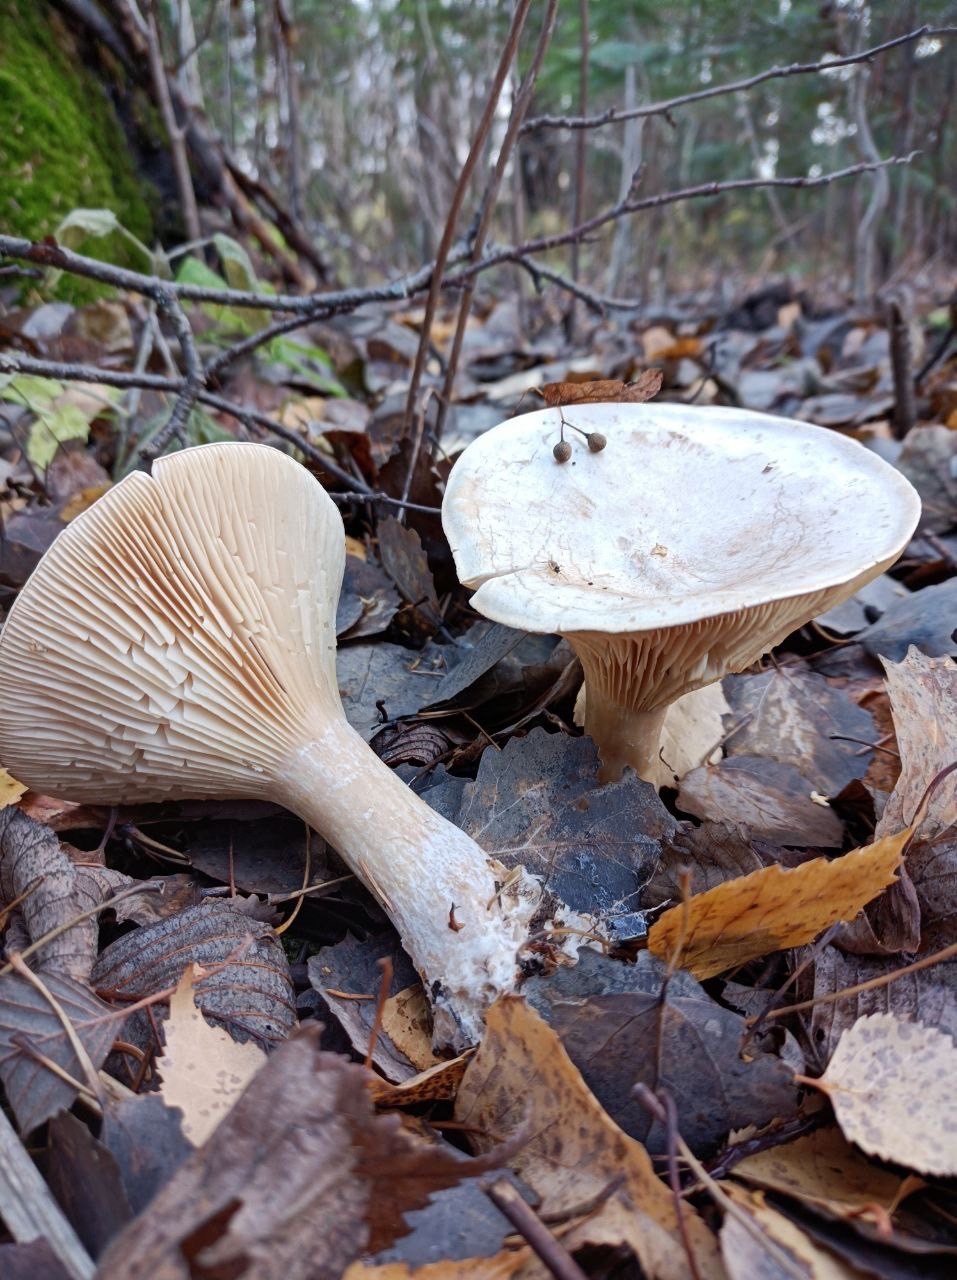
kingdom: Fungi
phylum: Basidiomycota
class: Agaricomycetes
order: Agaricales
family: Tricholomataceae
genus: Infundibulicybe
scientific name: Infundibulicybe geotropa
